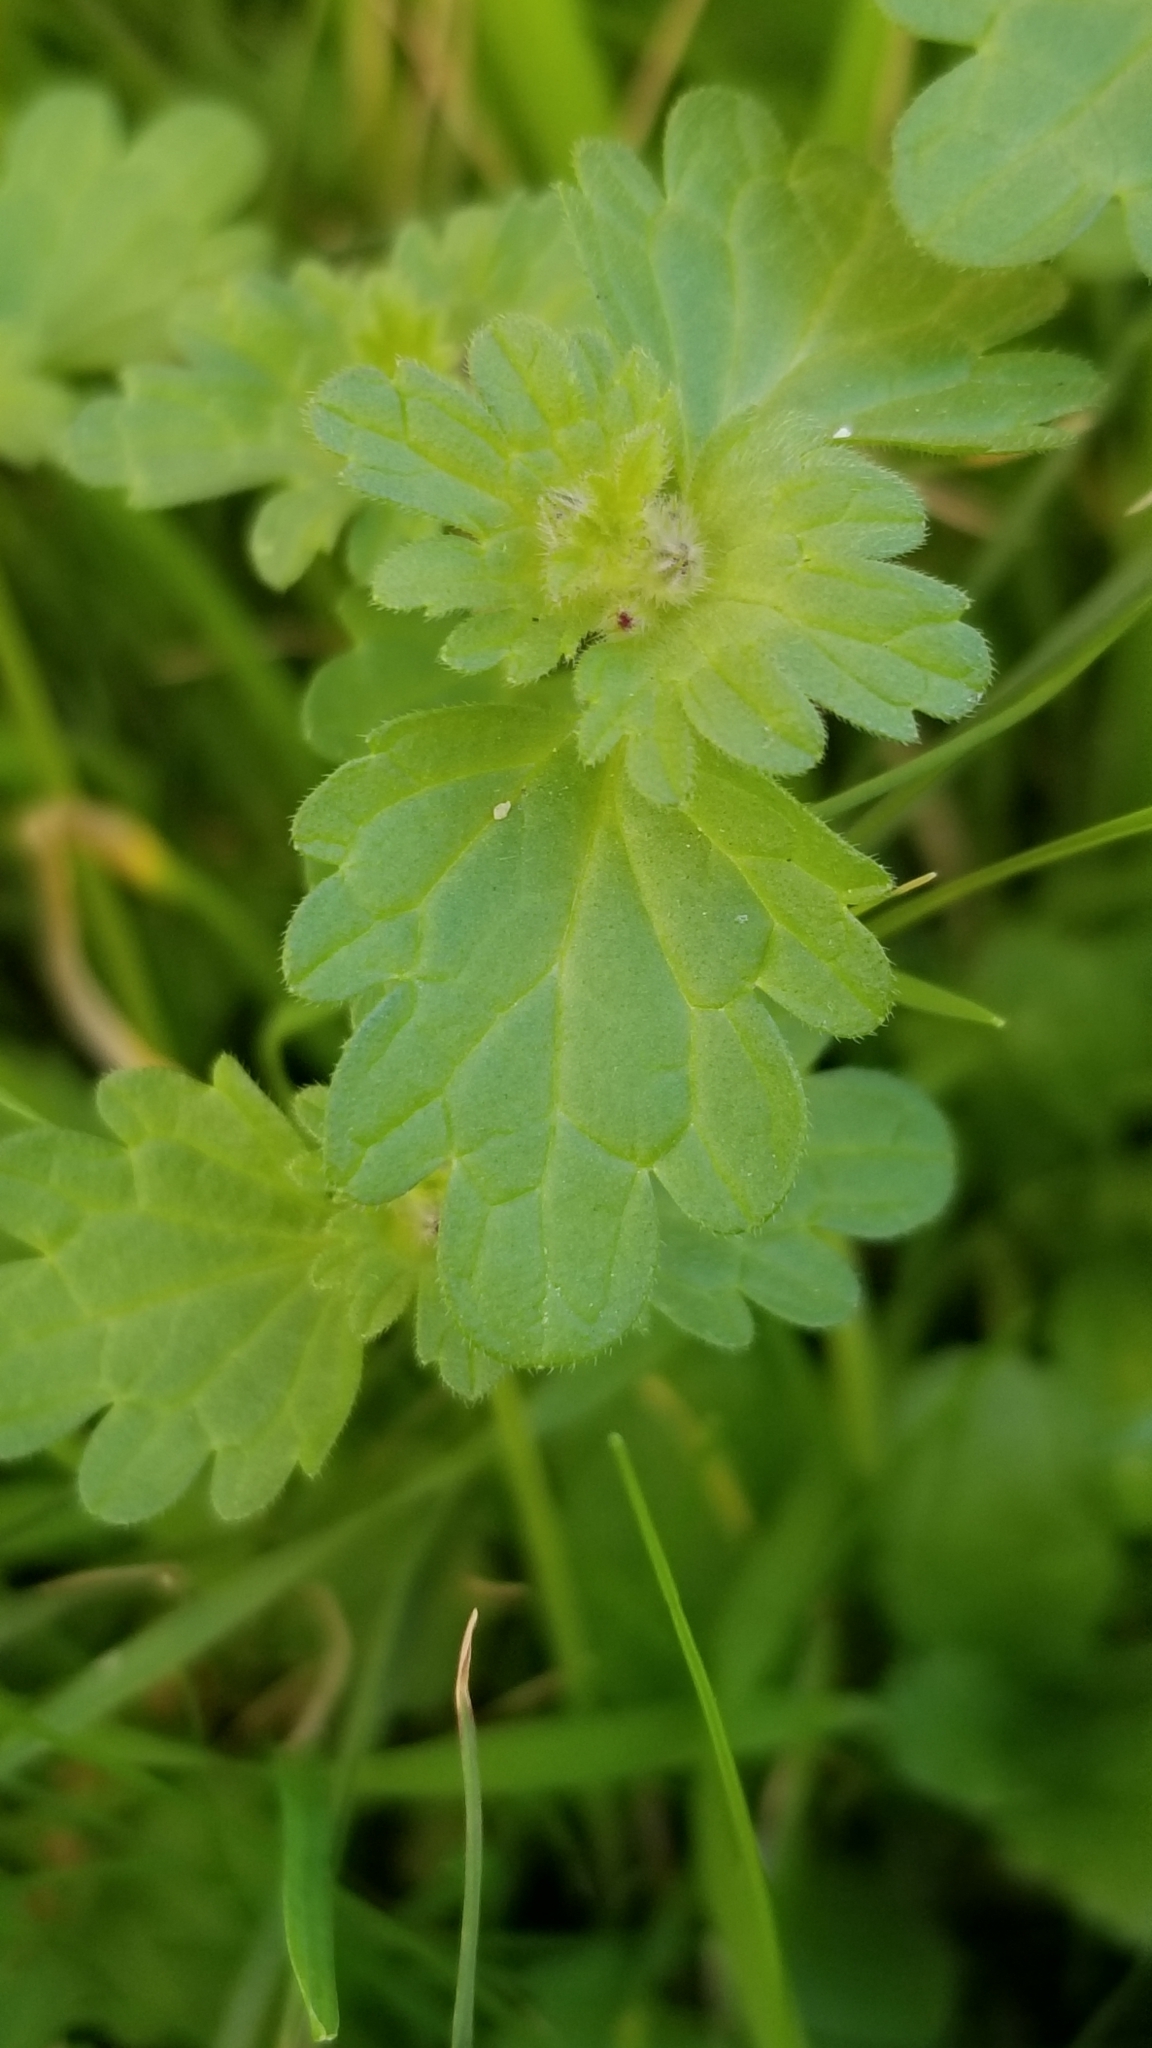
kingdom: Plantae
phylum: Tracheophyta
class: Magnoliopsida
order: Lamiales
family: Lamiaceae
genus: Lamium
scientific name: Lamium amplexicaule
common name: Henbit dead-nettle
